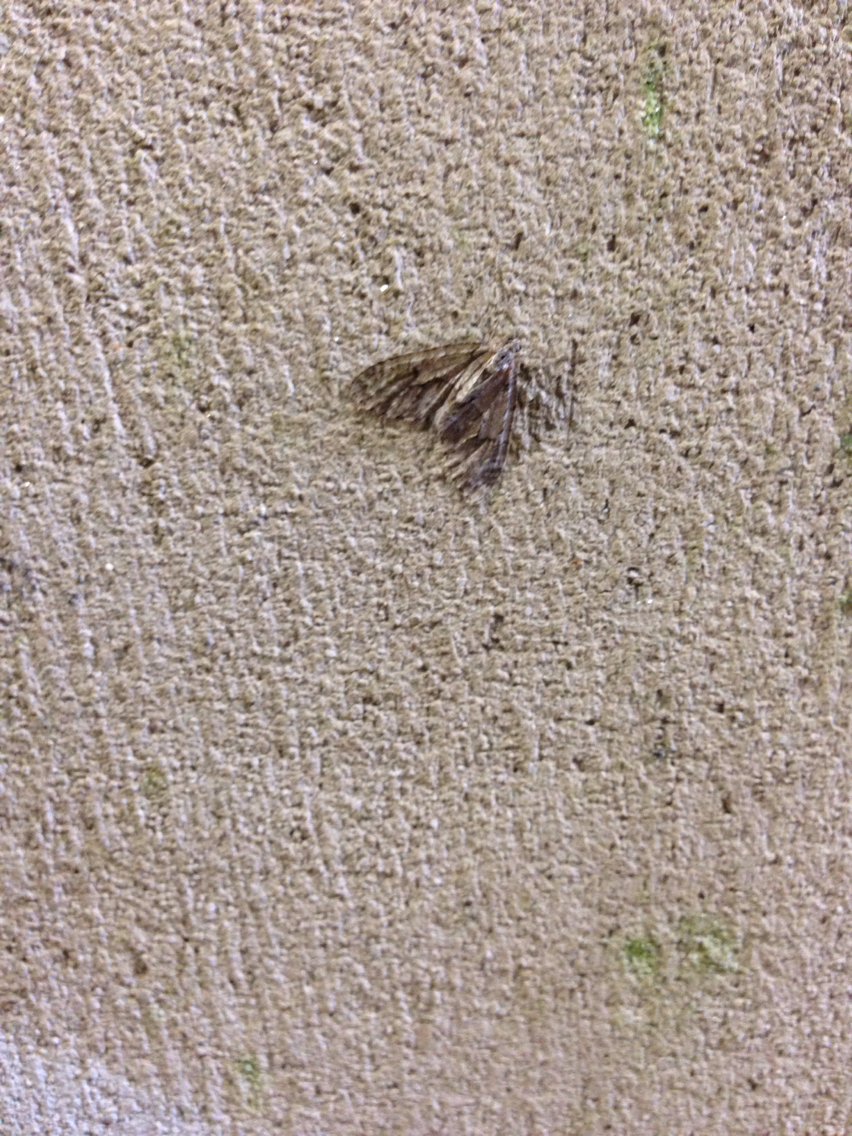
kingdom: Animalia
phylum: Arthropoda
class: Insecta
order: Lepidoptera
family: Geometridae
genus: Cladara
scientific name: Cladara limitaria
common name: Mottled gray carpet
